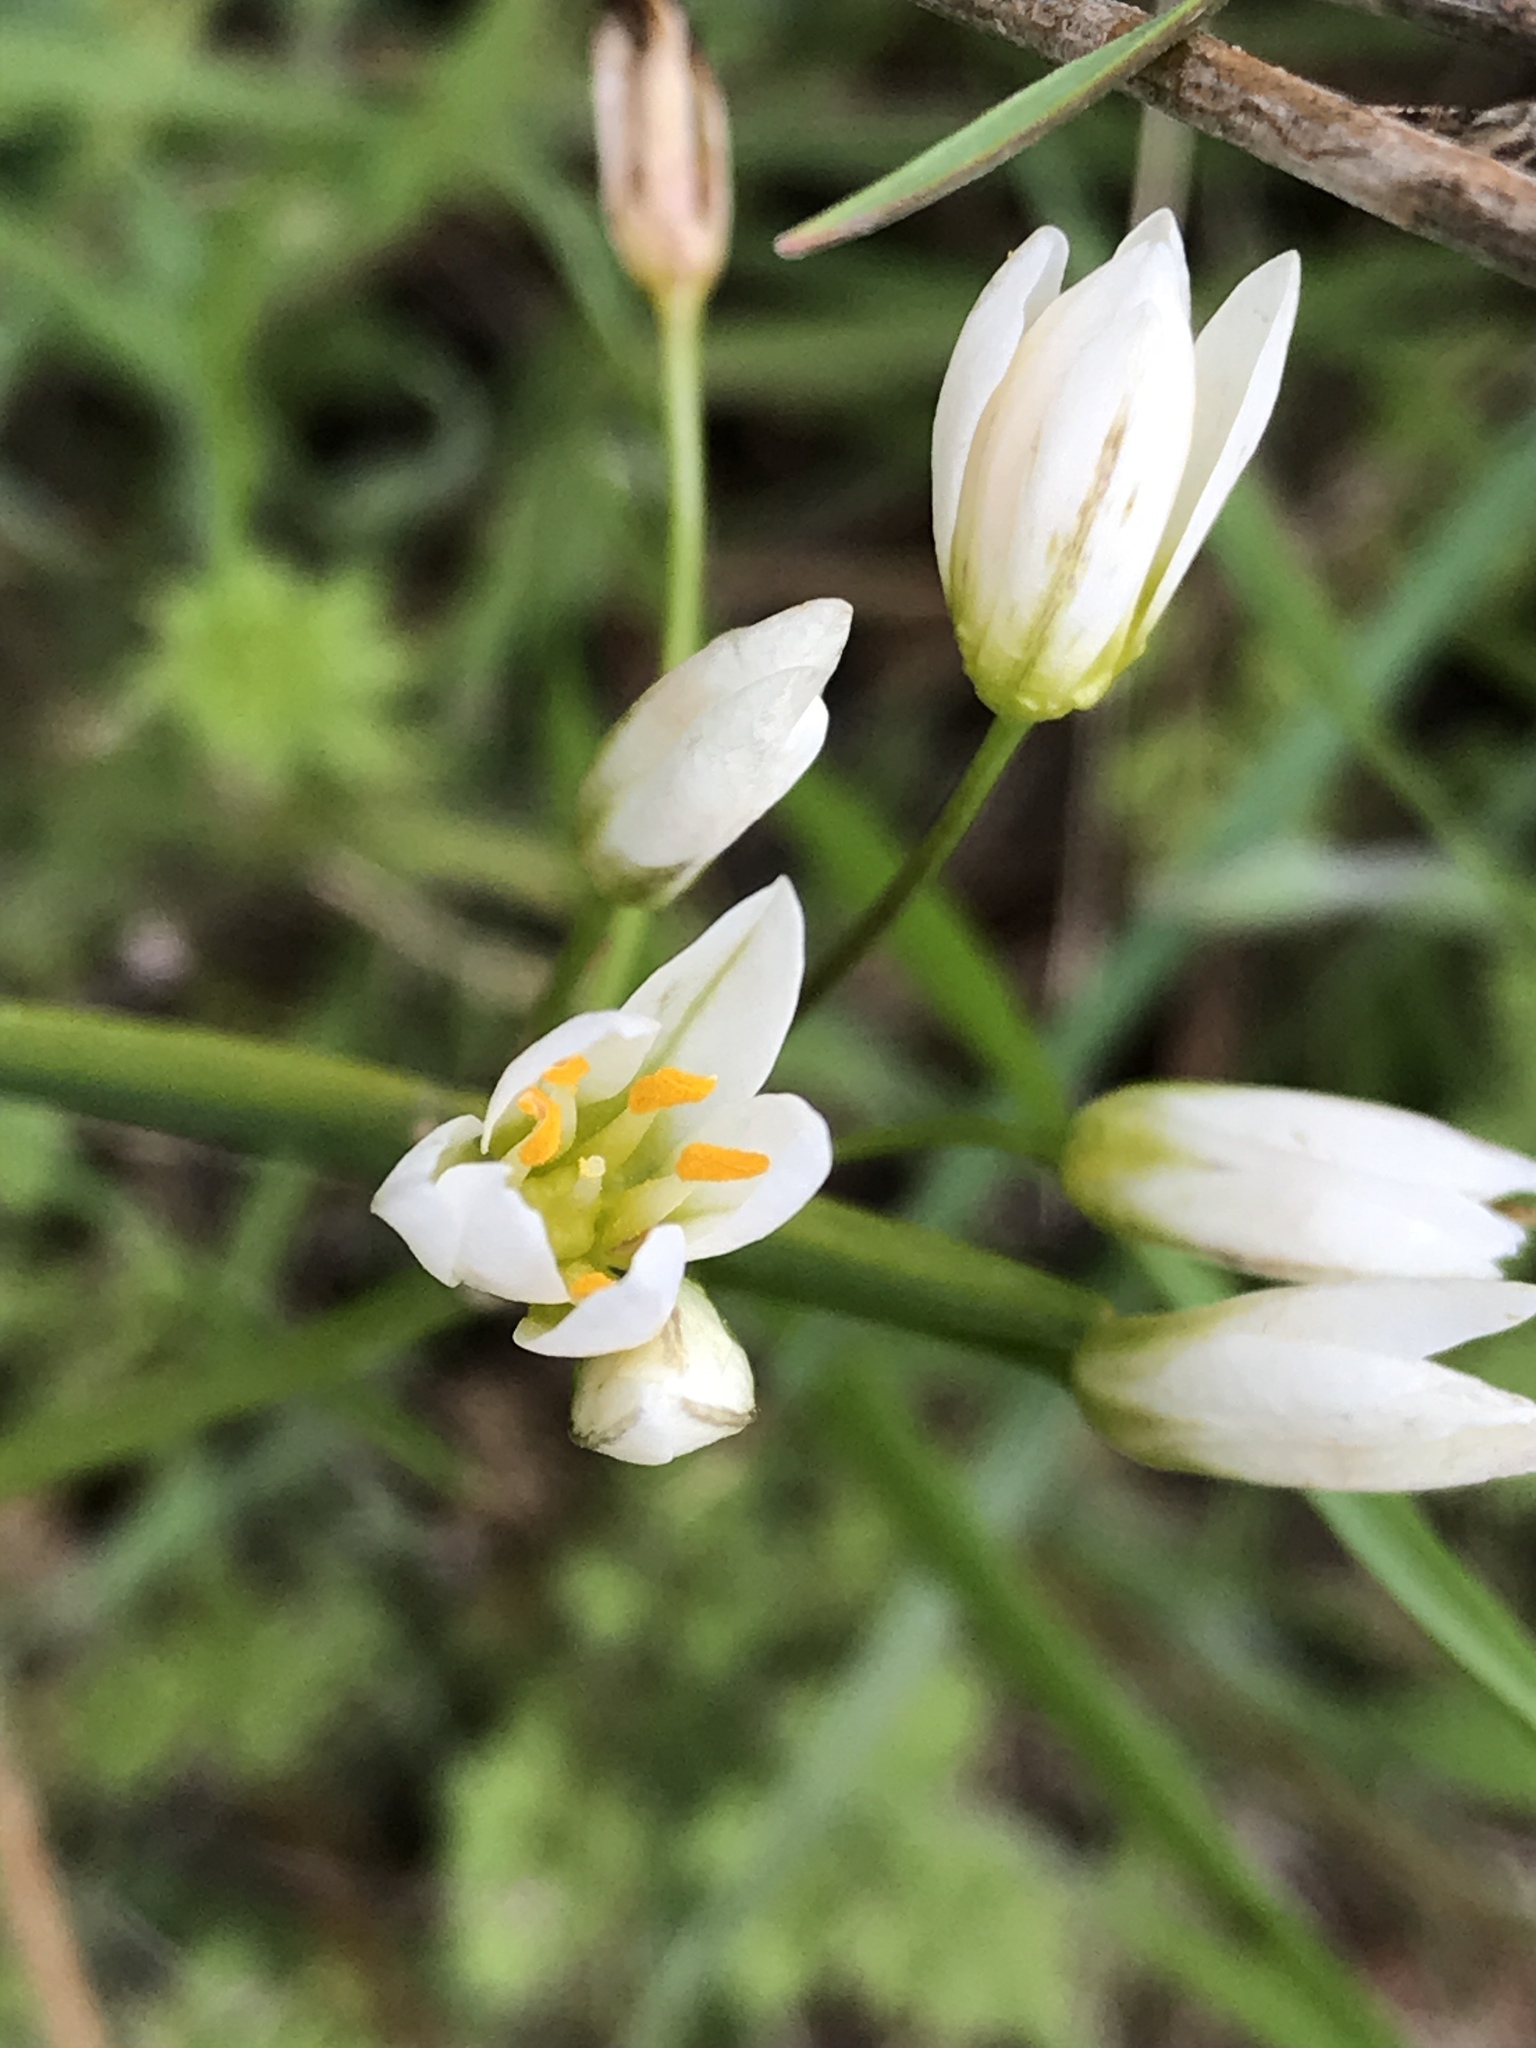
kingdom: Plantae
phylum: Tracheophyta
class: Liliopsida
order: Asparagales
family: Amaryllidaceae
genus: Nothoscordum
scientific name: Nothoscordum bivalve
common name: Crow-poison
